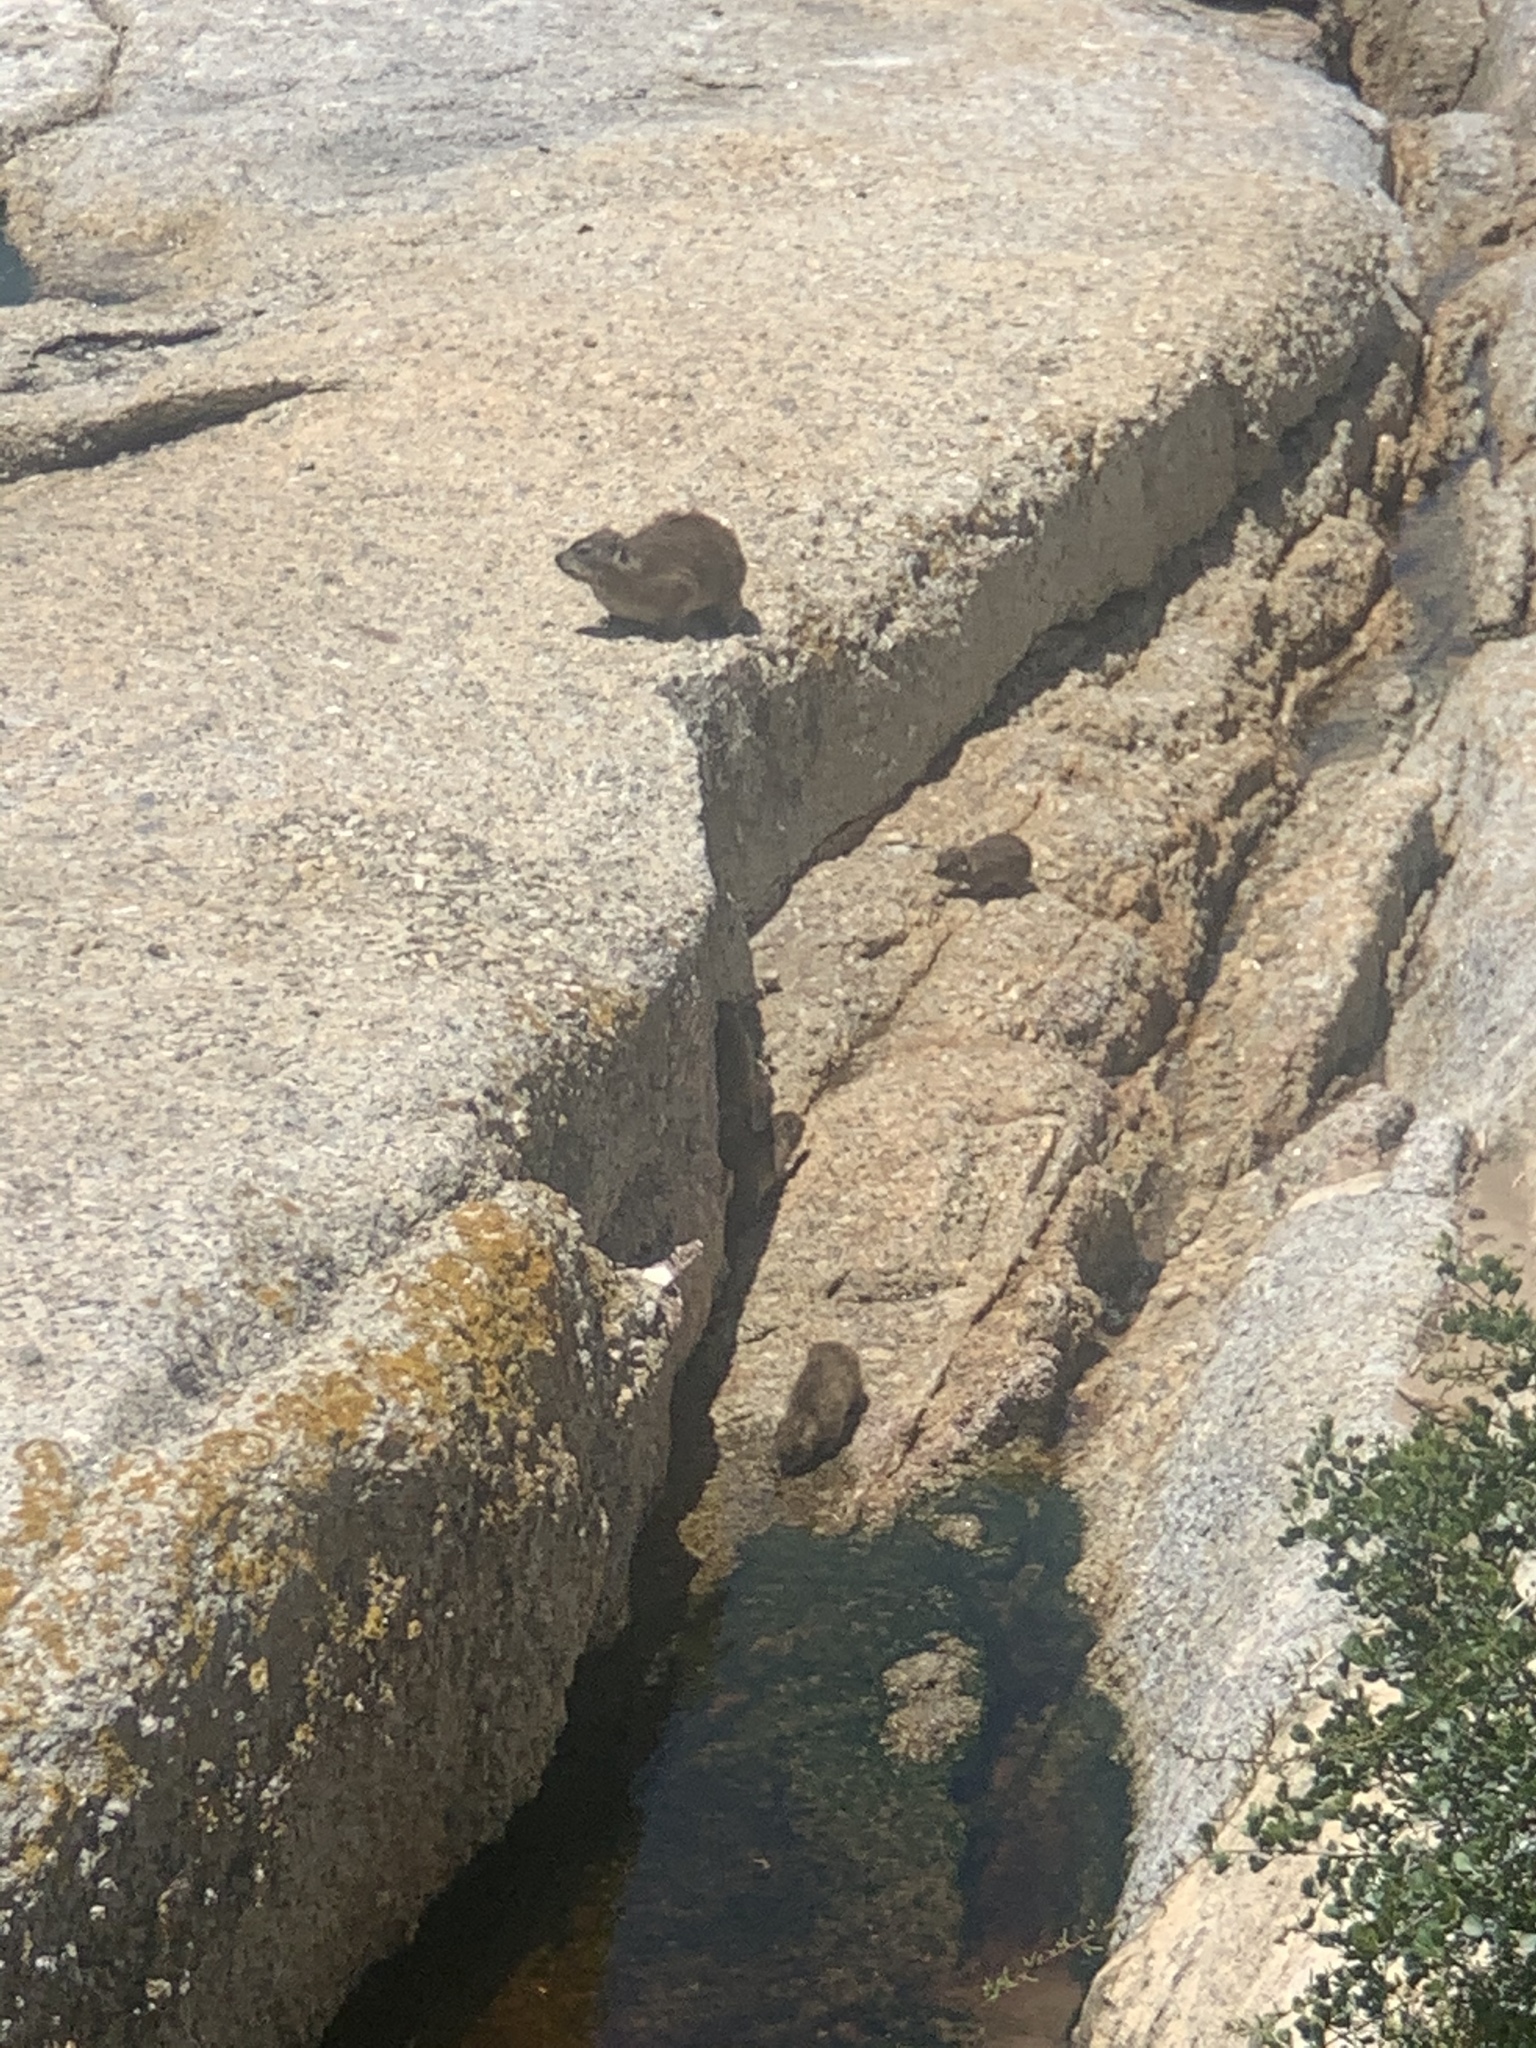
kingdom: Animalia
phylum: Chordata
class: Mammalia
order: Hyracoidea
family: Procaviidae
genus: Procavia
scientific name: Procavia capensis
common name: Rock hyrax
